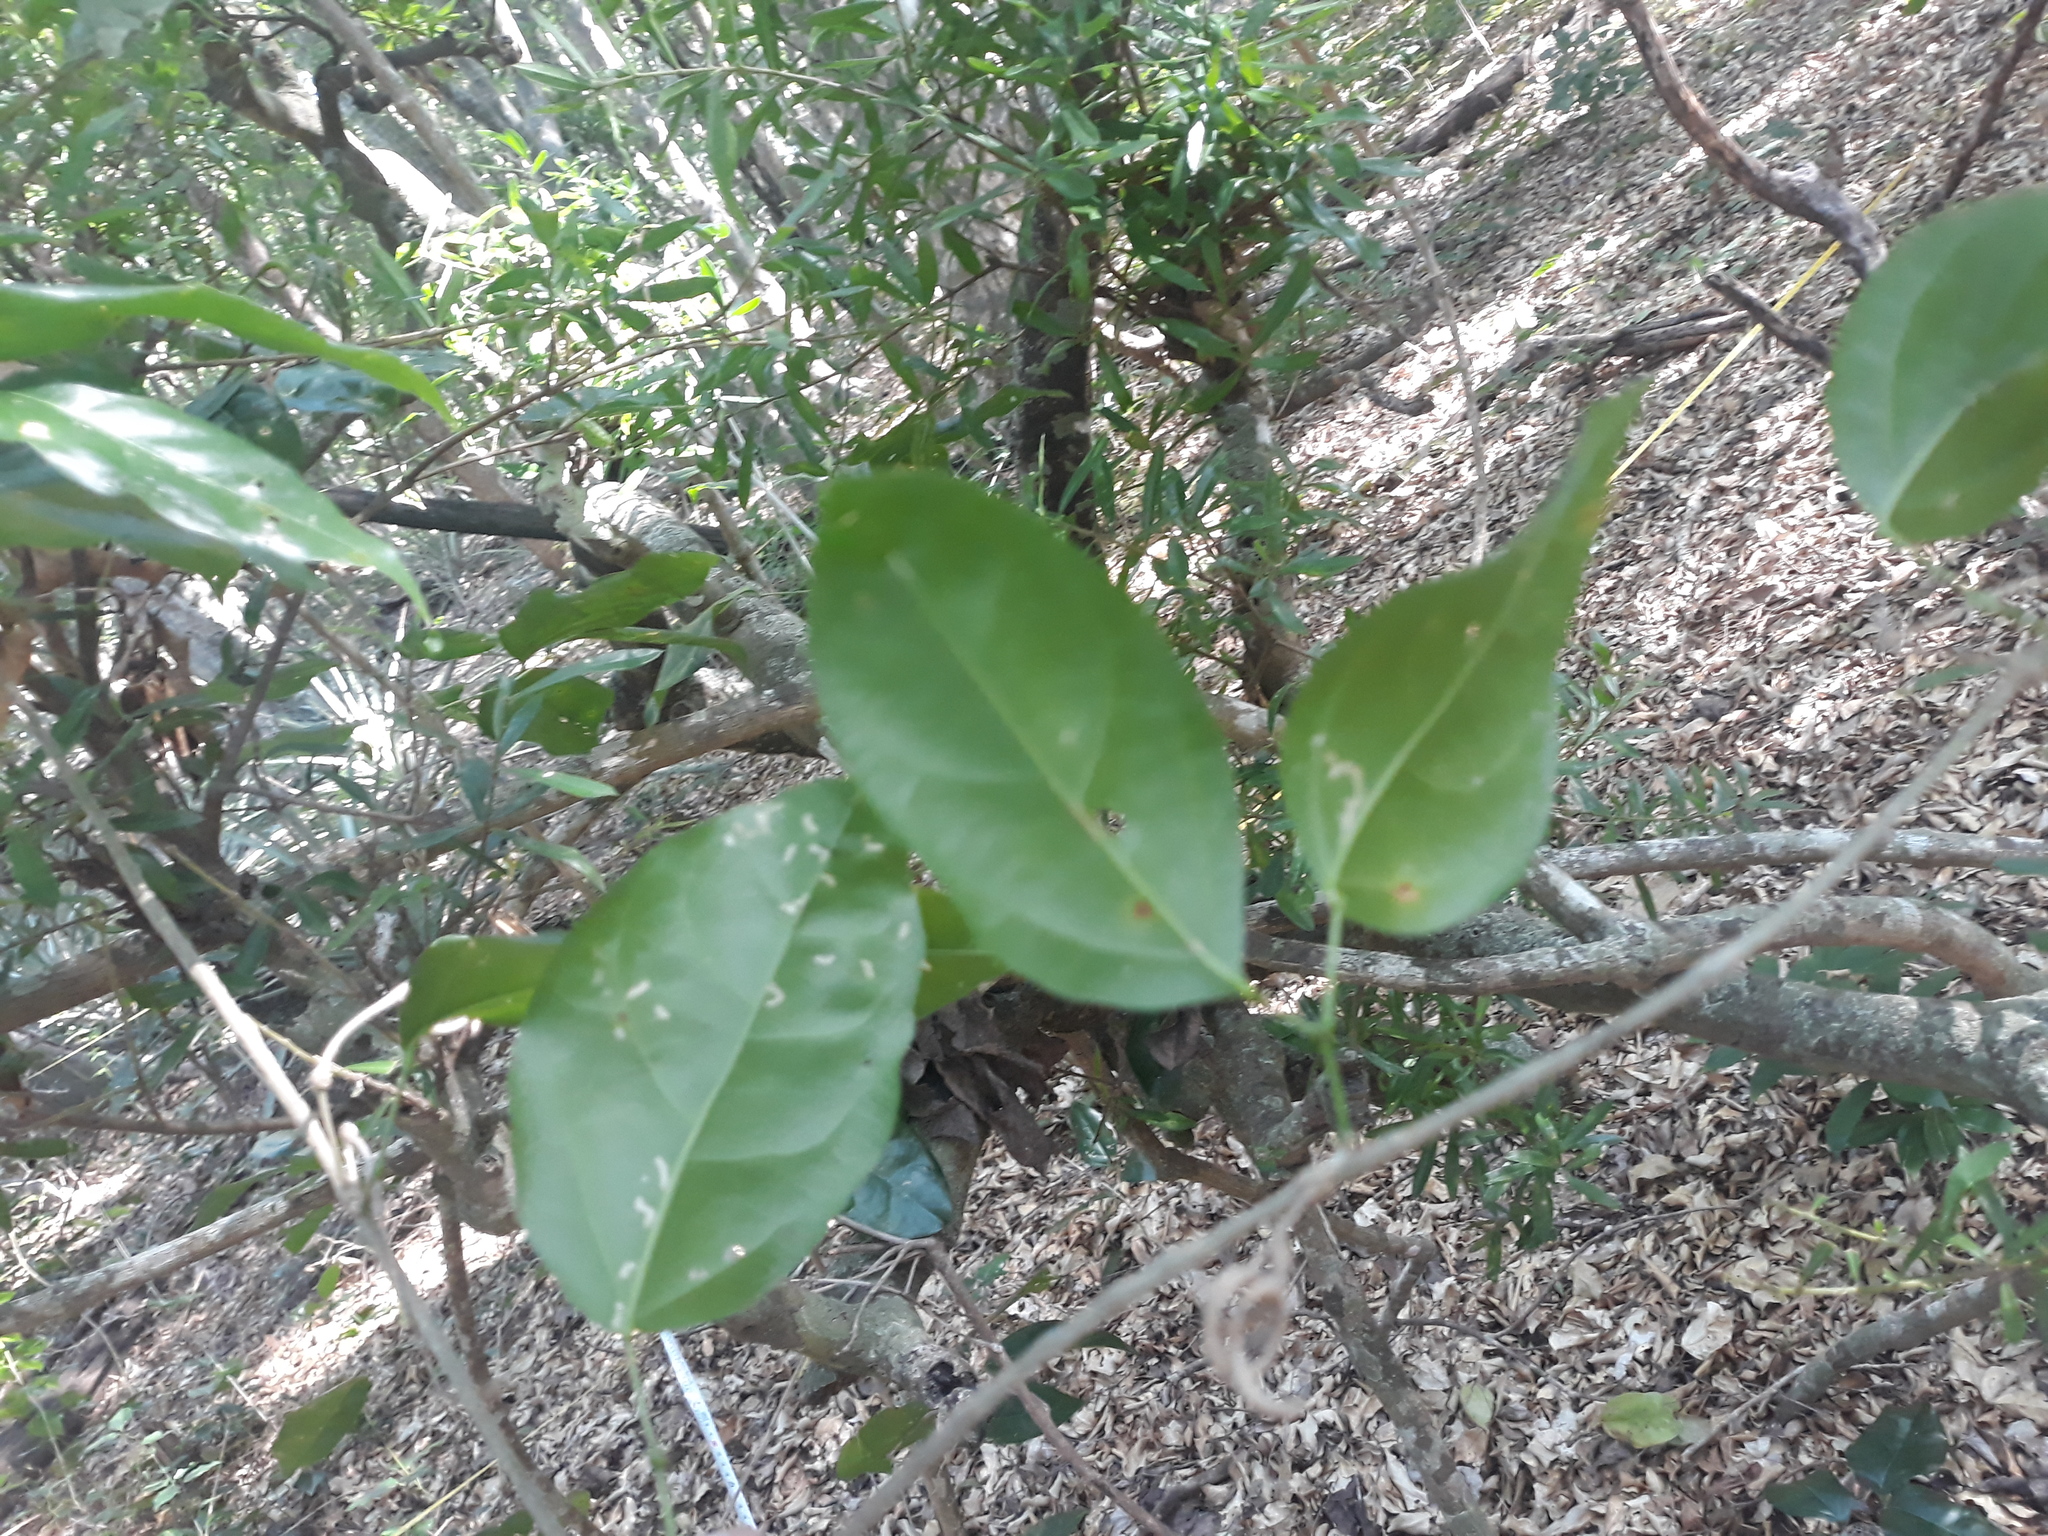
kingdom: Plantae
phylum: Tracheophyta
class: Magnoliopsida
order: Lamiales
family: Bignoniaceae
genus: Bignonia
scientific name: Bignonia aequinoctialis
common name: Garlicvine
